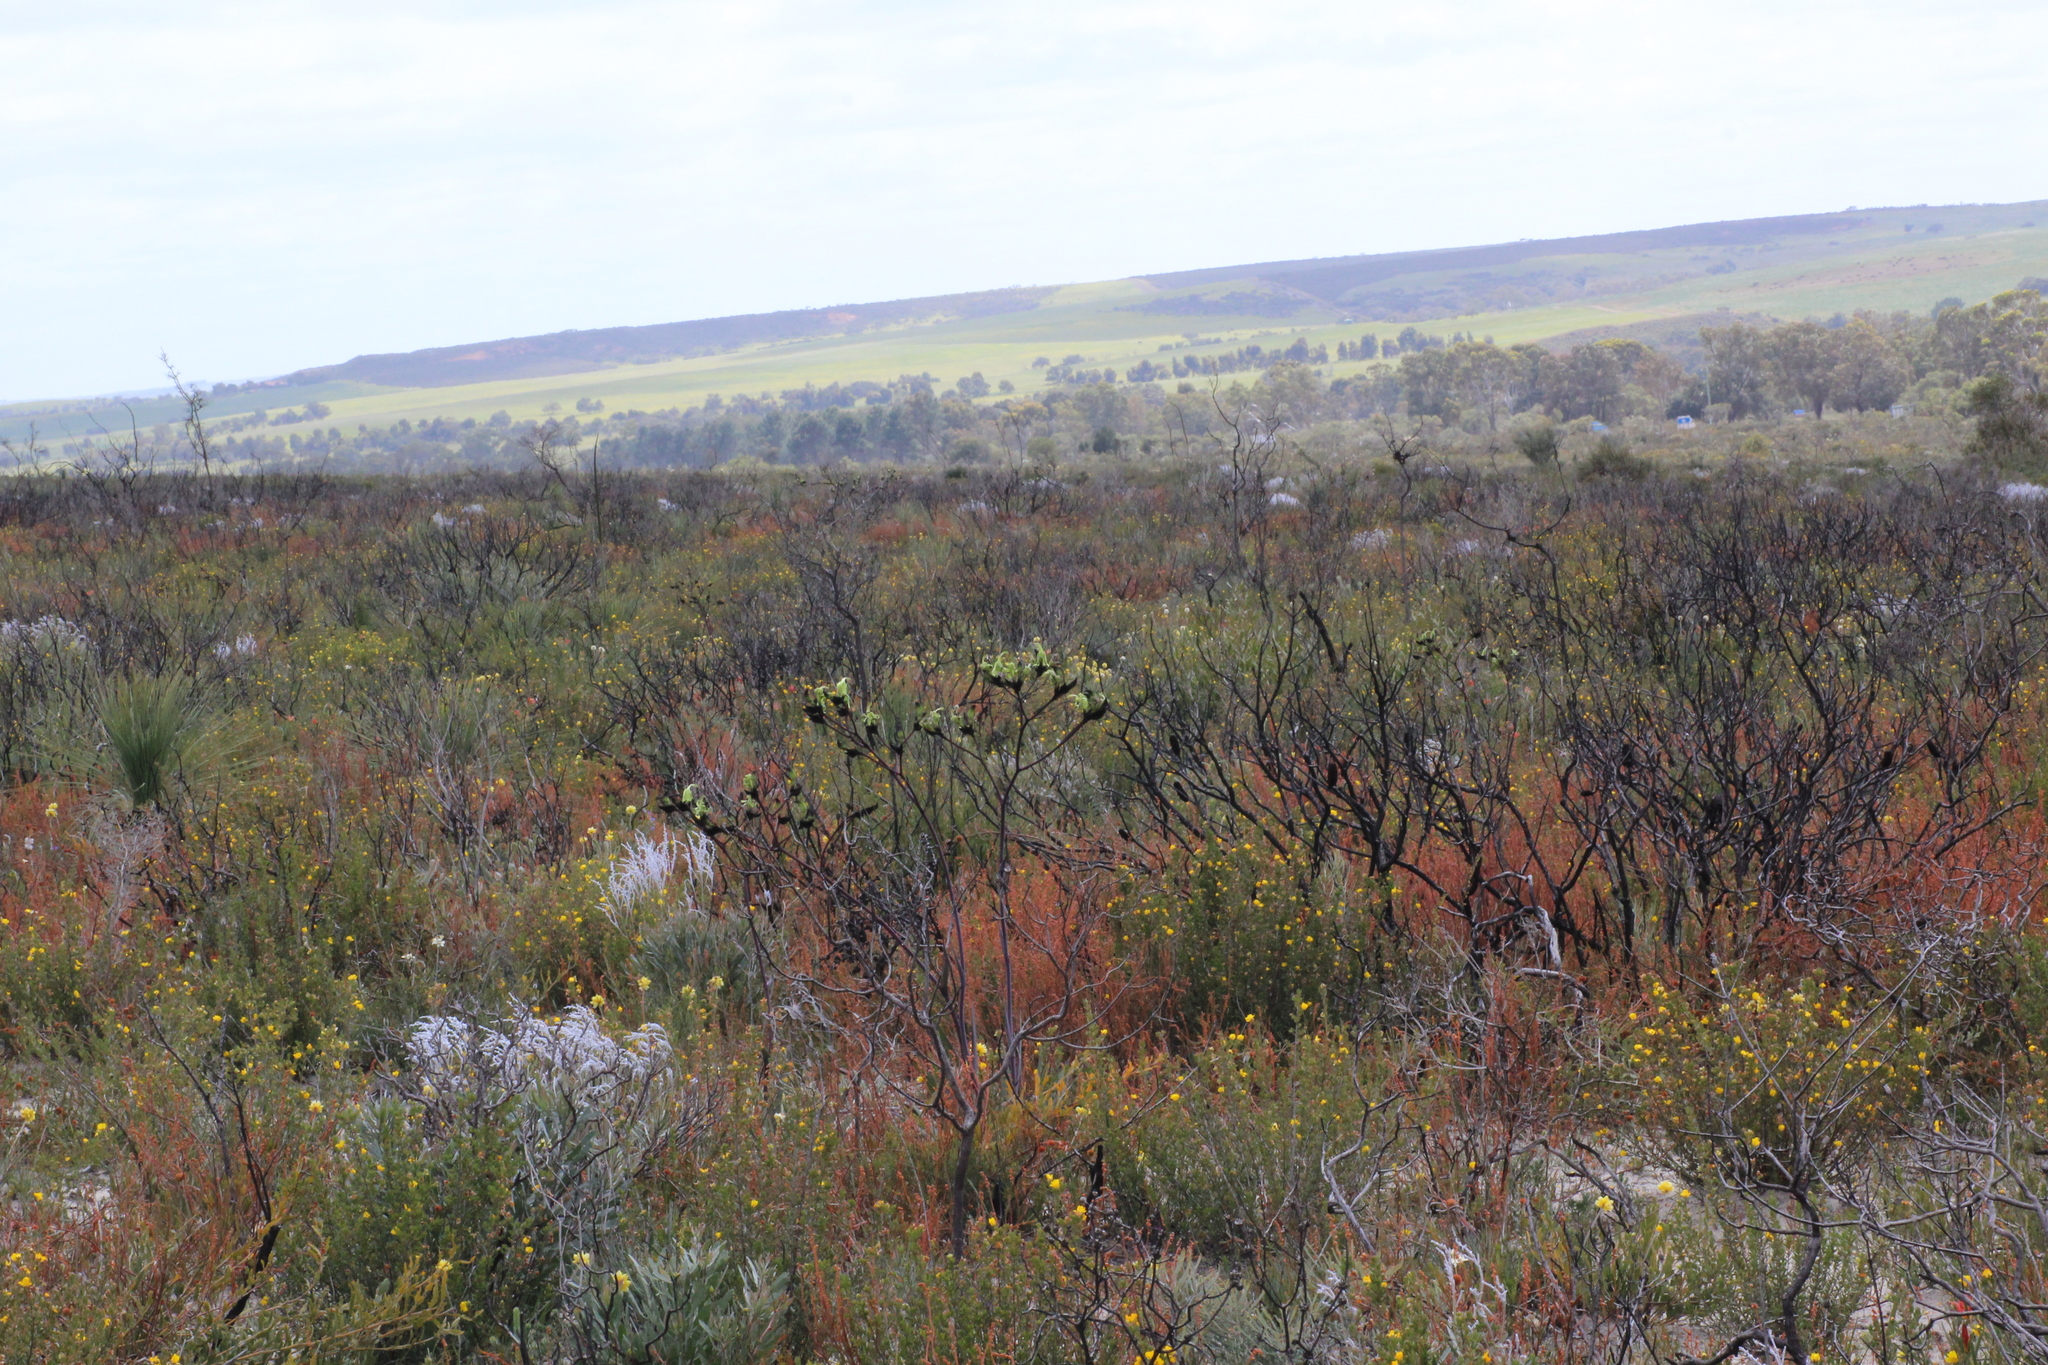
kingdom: Plantae
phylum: Tracheophyta
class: Liliopsida
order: Commelinales
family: Haemodoraceae
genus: Macropidia
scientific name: Macropidia fuliginosa
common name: Black kangaroo-paw
